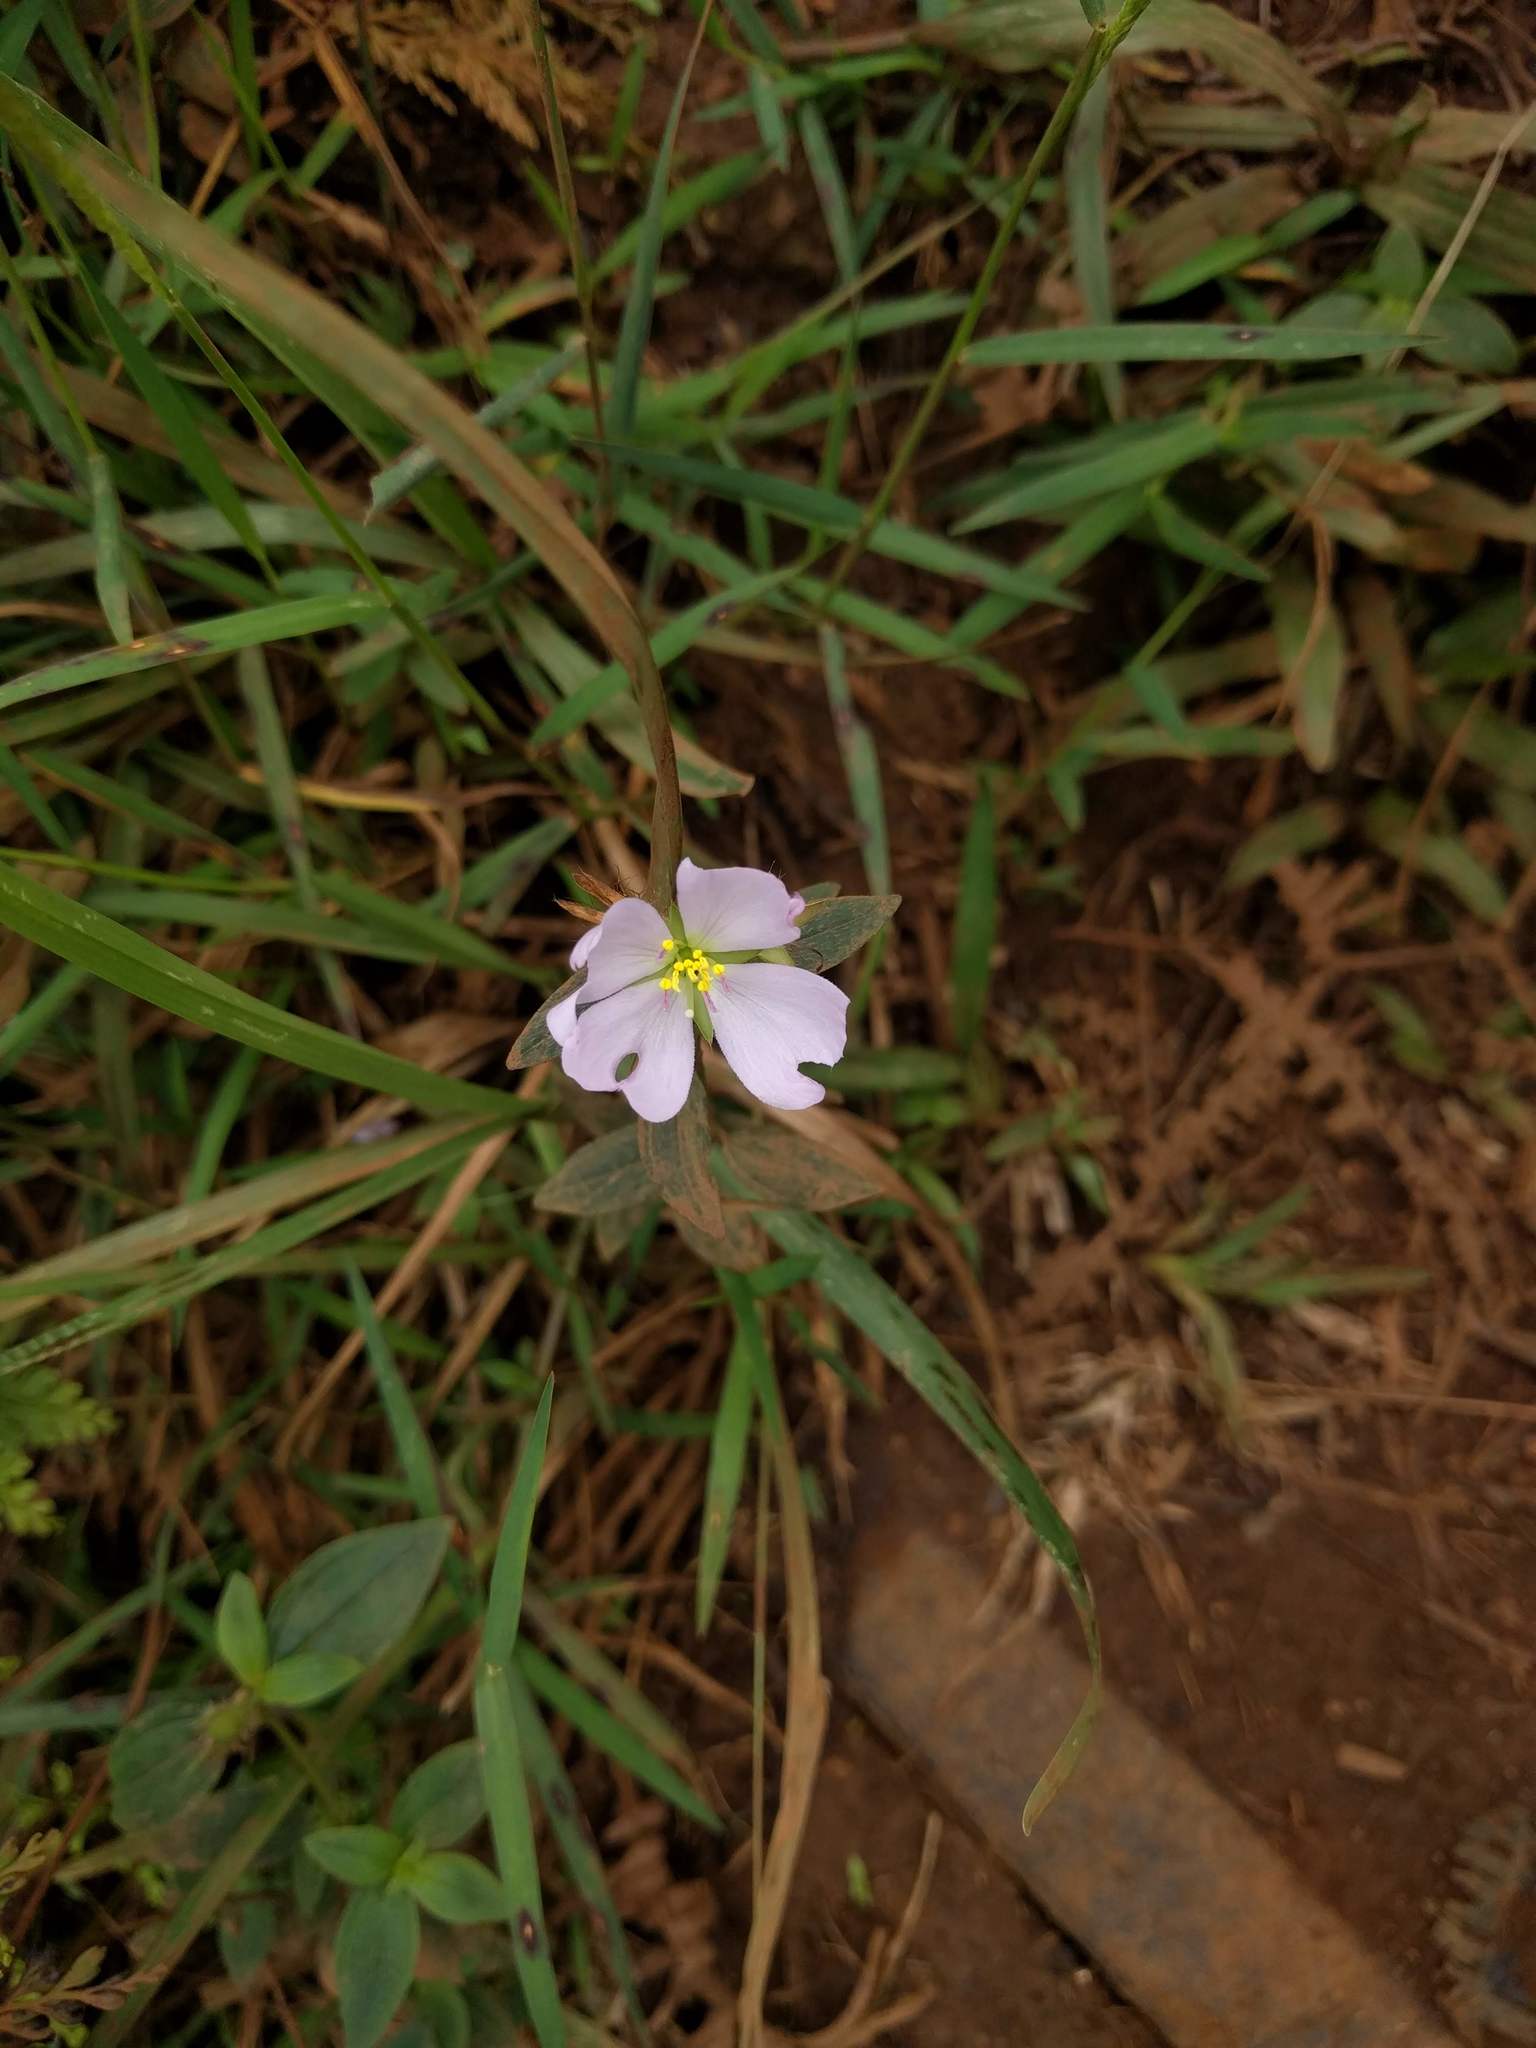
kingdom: Plantae
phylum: Tracheophyta
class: Magnoliopsida
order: Myrtales
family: Melastomataceae
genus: Pterolepis
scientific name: Pterolepis glomerata
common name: False meadowbeauty
